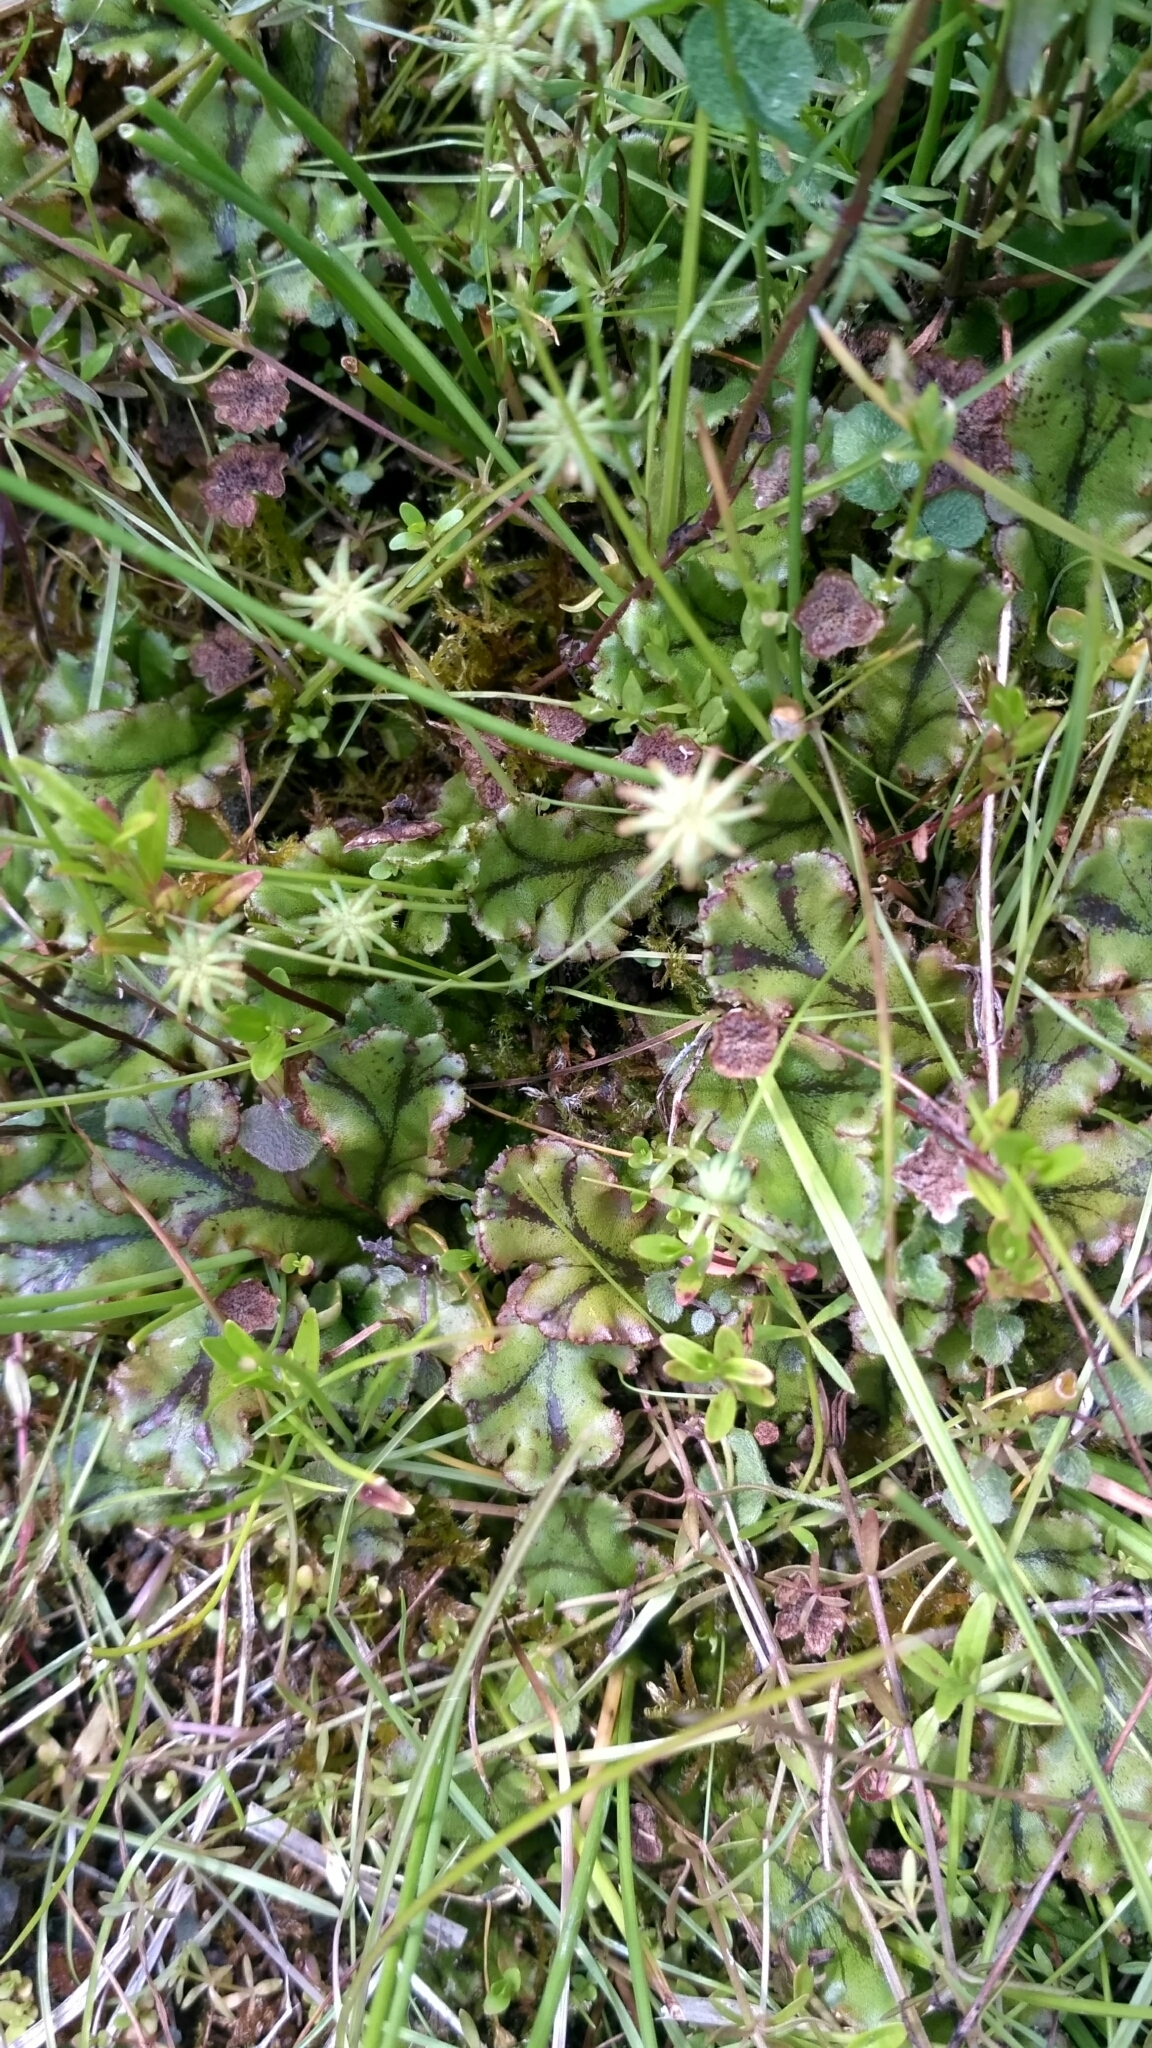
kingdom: Plantae
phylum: Marchantiophyta
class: Marchantiopsida
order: Marchantiales
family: Marchantiaceae
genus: Marchantia
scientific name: Marchantia polymorpha
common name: Common liverwort
